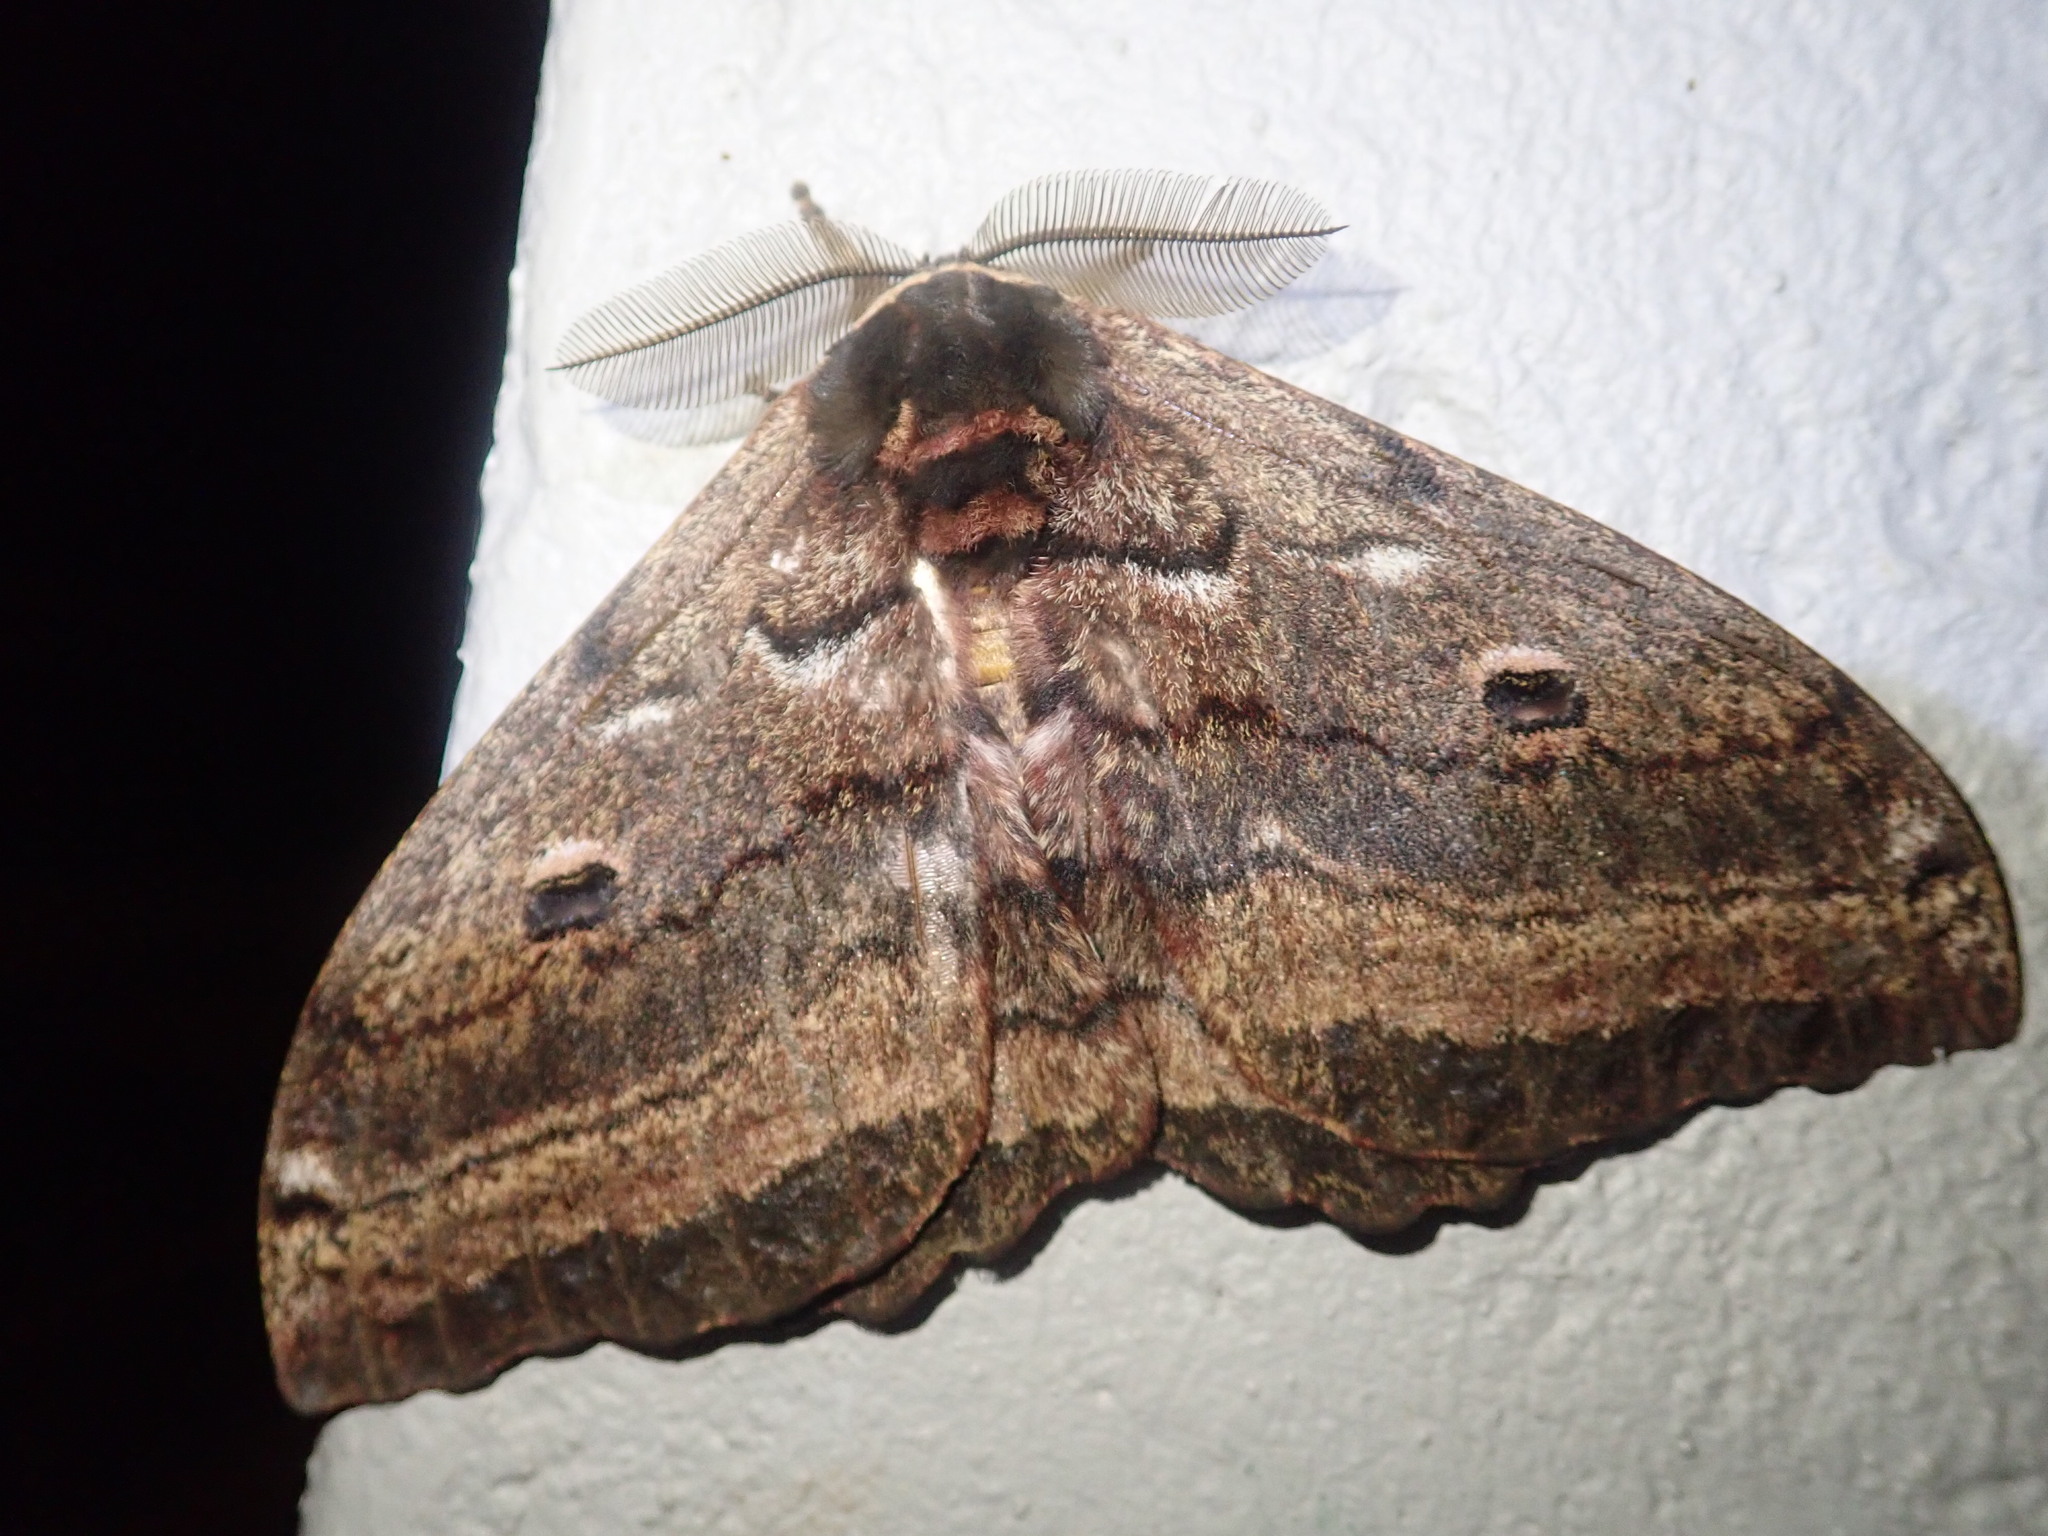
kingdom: Animalia
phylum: Arthropoda
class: Insecta
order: Lepidoptera
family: Saturniidae
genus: Gynanisa
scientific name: Gynanisa maja
